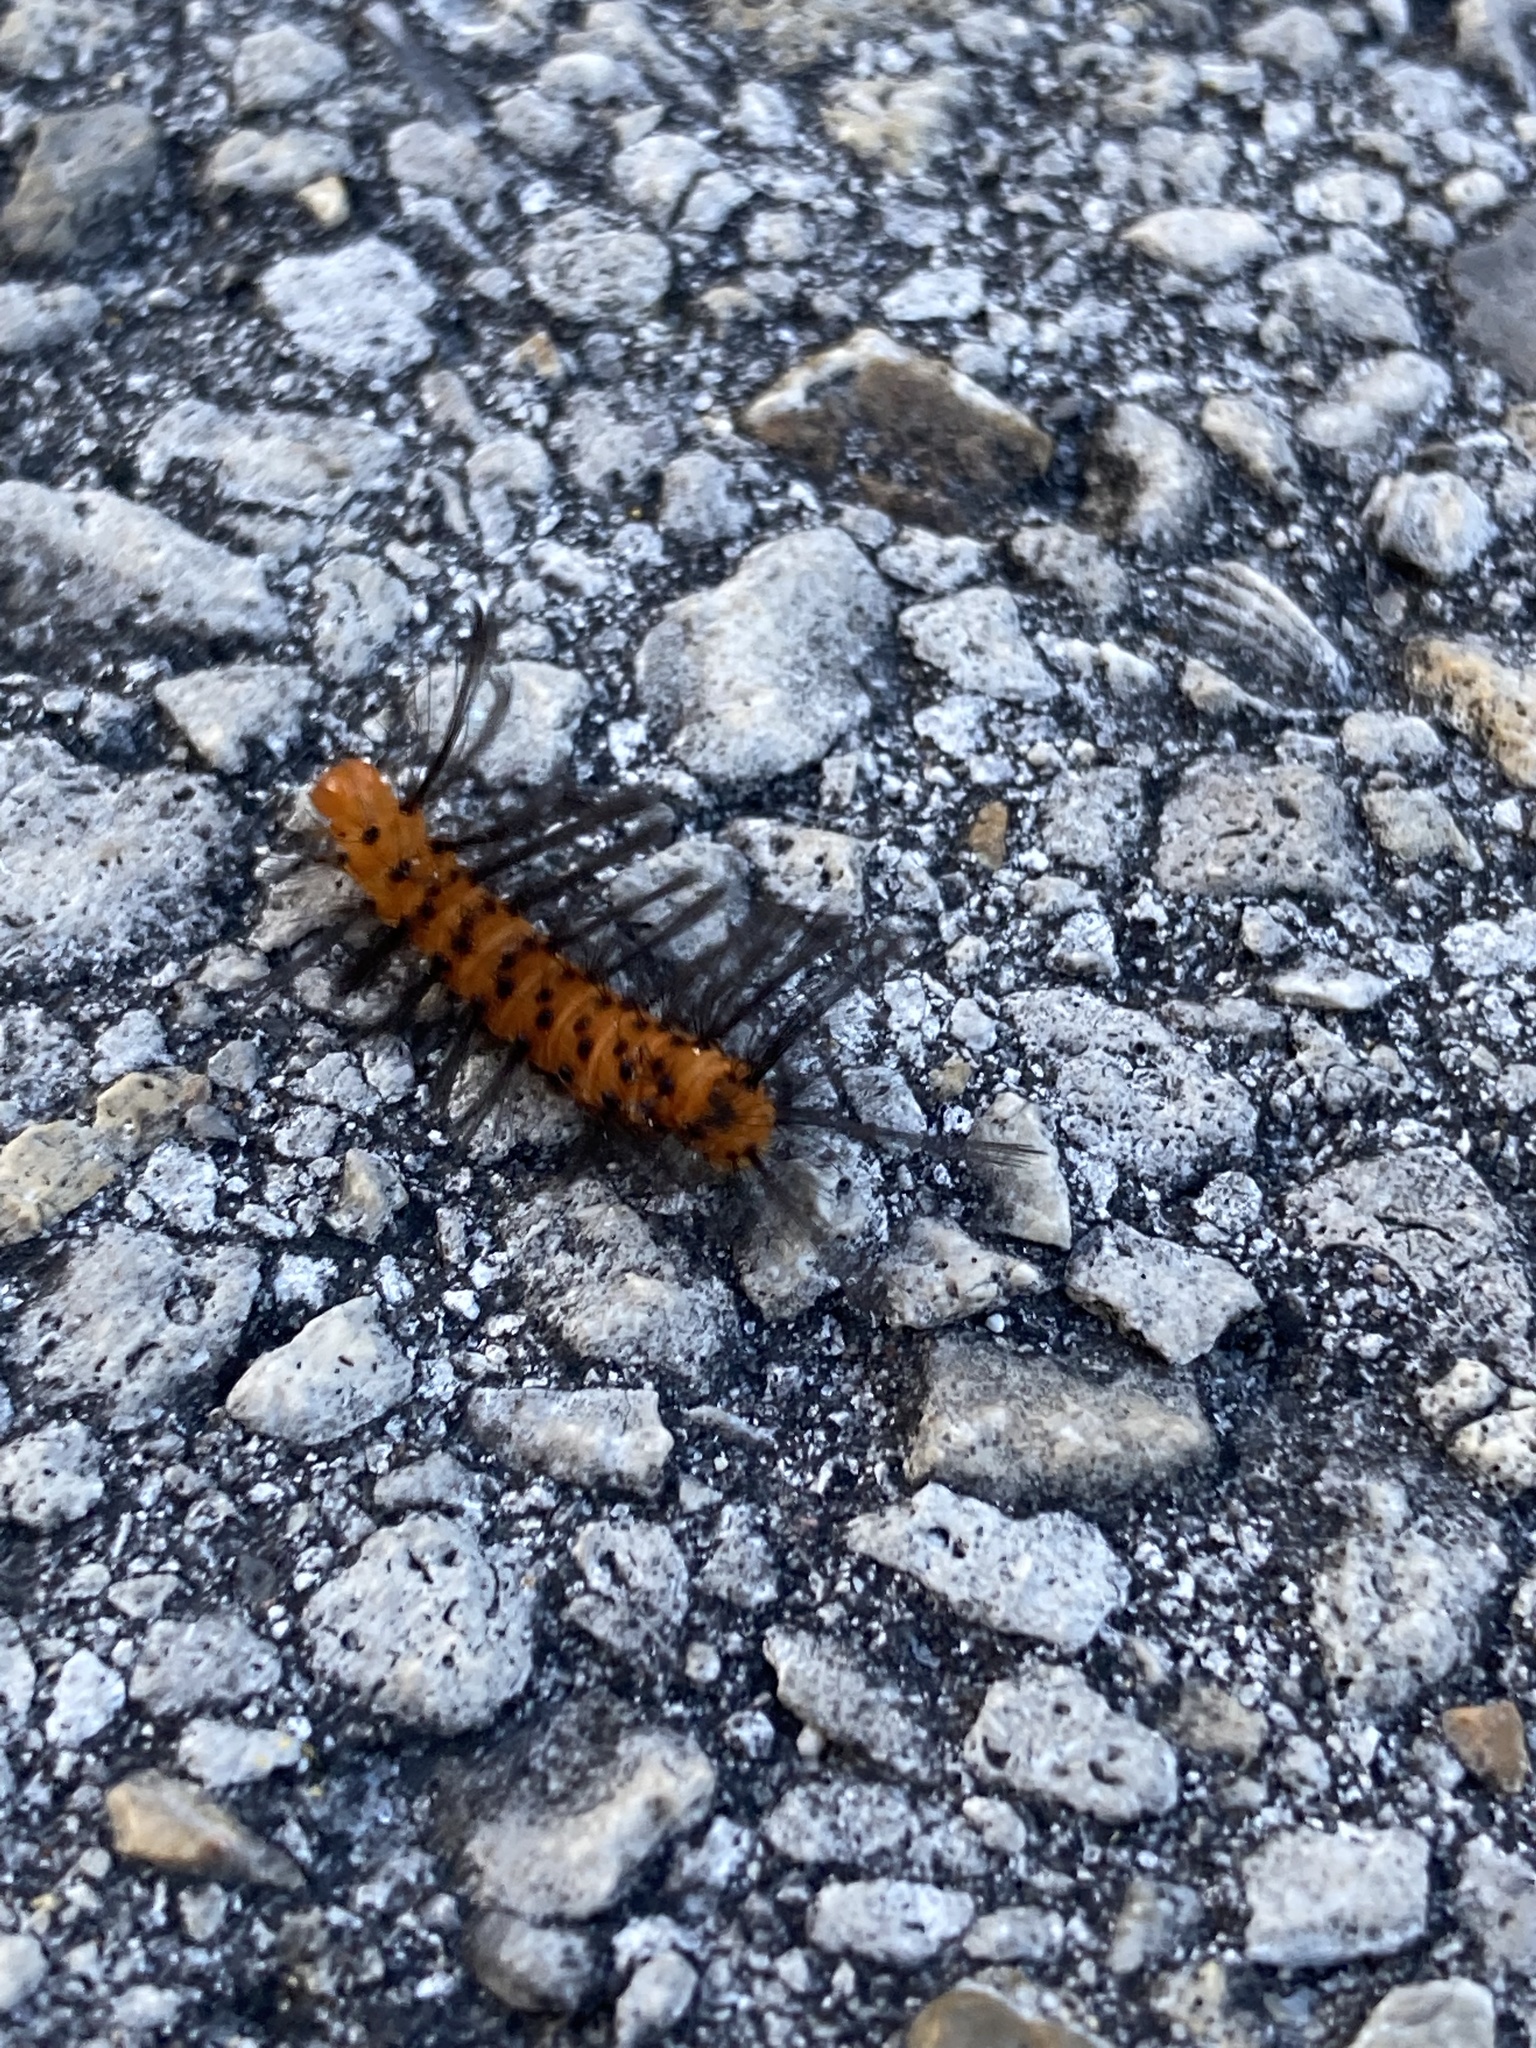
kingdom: Animalia
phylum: Arthropoda
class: Insecta
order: Lepidoptera
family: Erebidae
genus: Syntomeida
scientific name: Syntomeida epilais
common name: Polka-dot wasp moth
